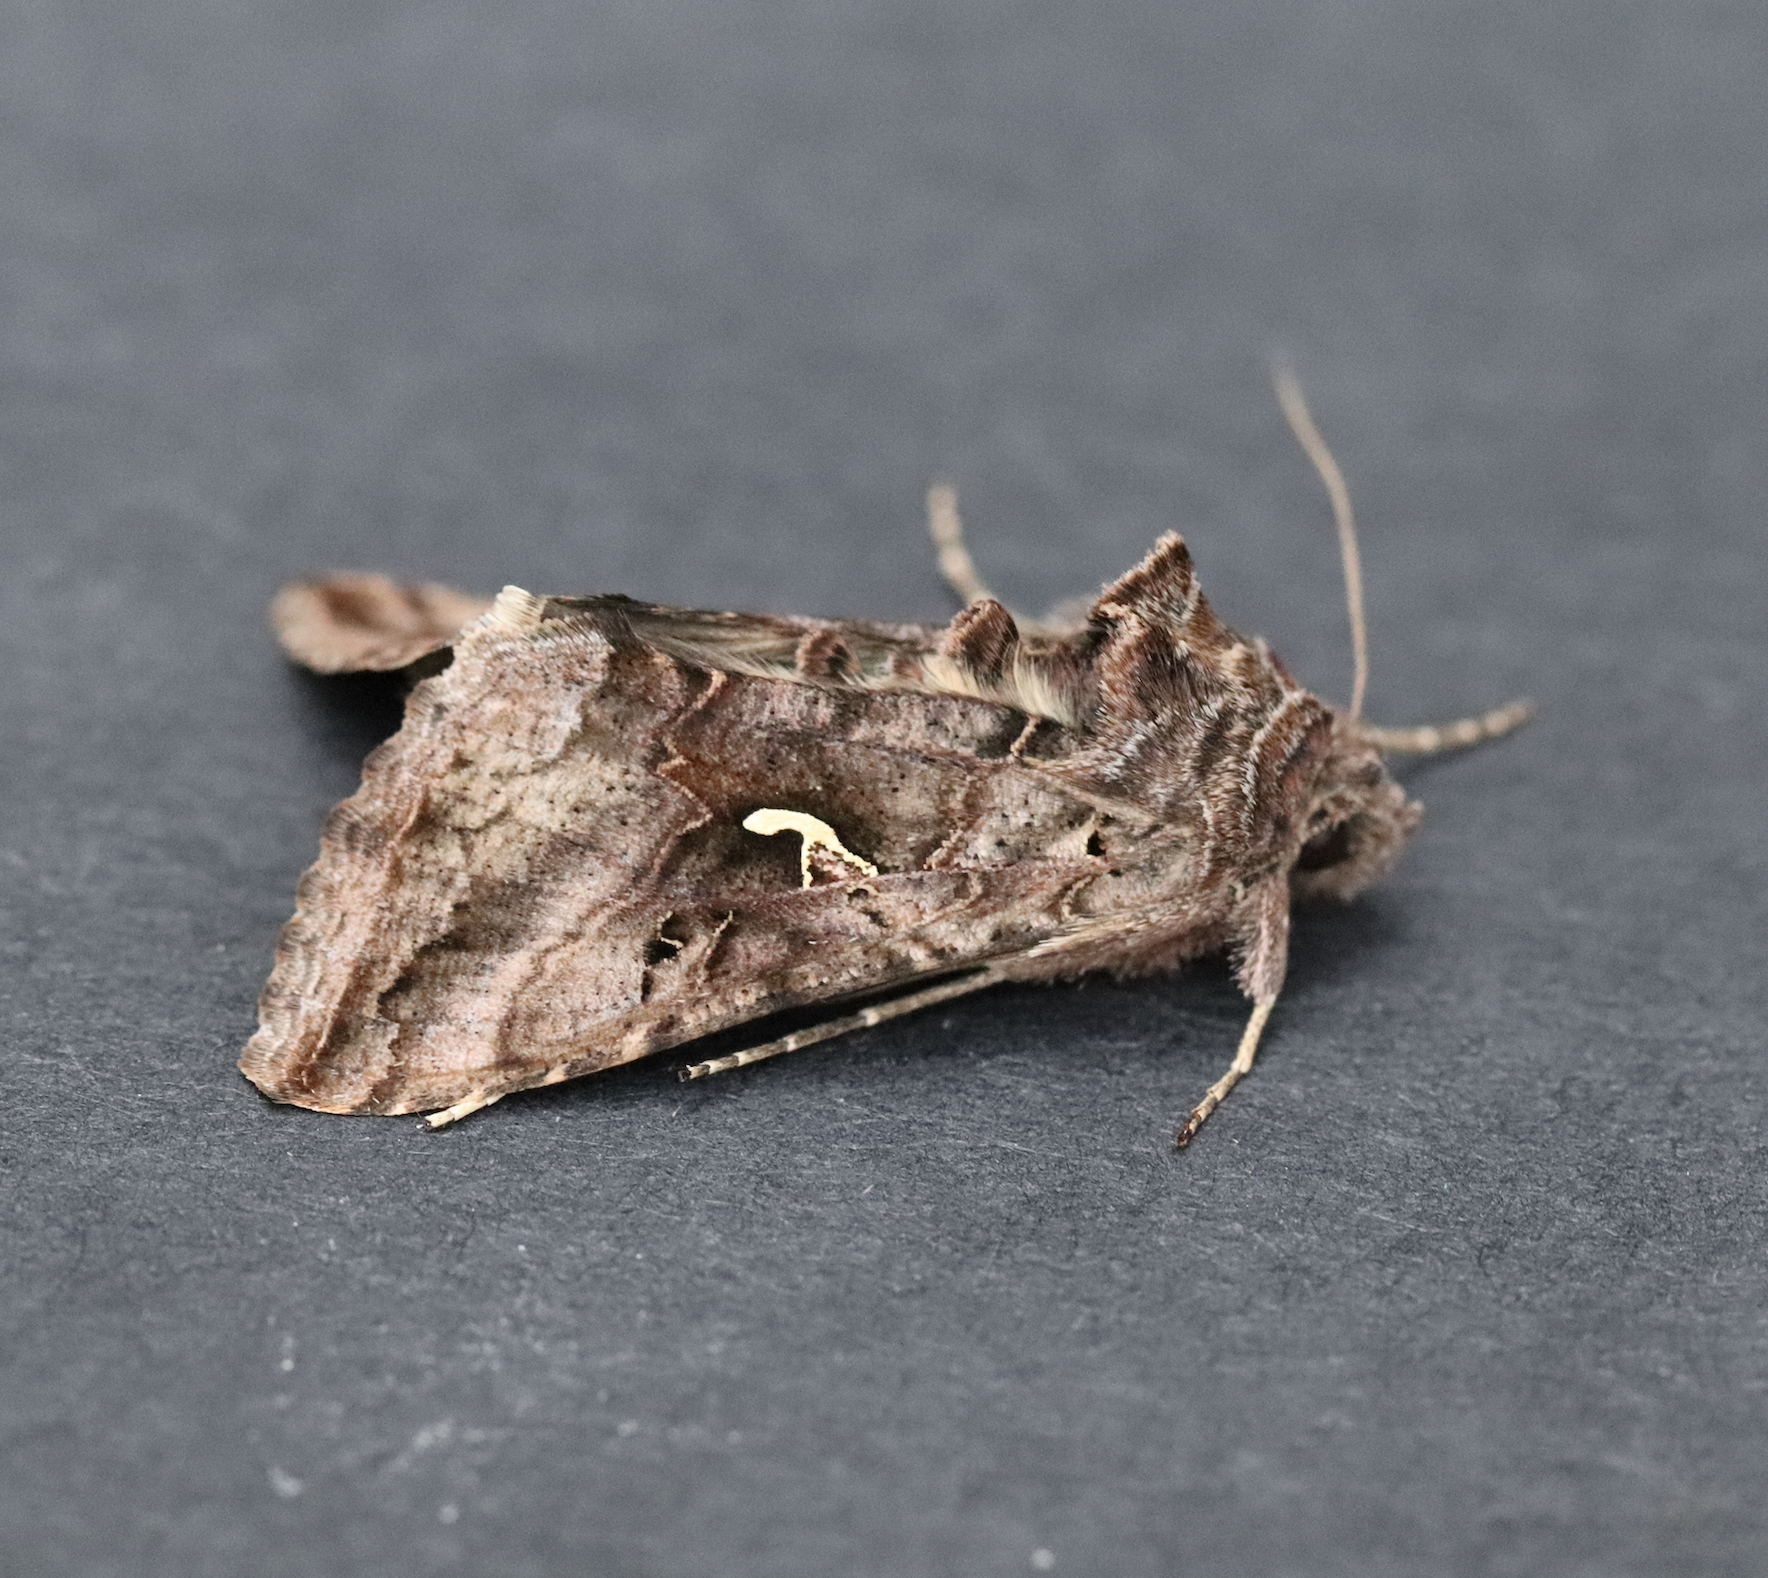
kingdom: Animalia
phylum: Arthropoda
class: Insecta
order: Lepidoptera
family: Noctuidae
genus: Autographa
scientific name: Autographa gamma
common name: Silver y
